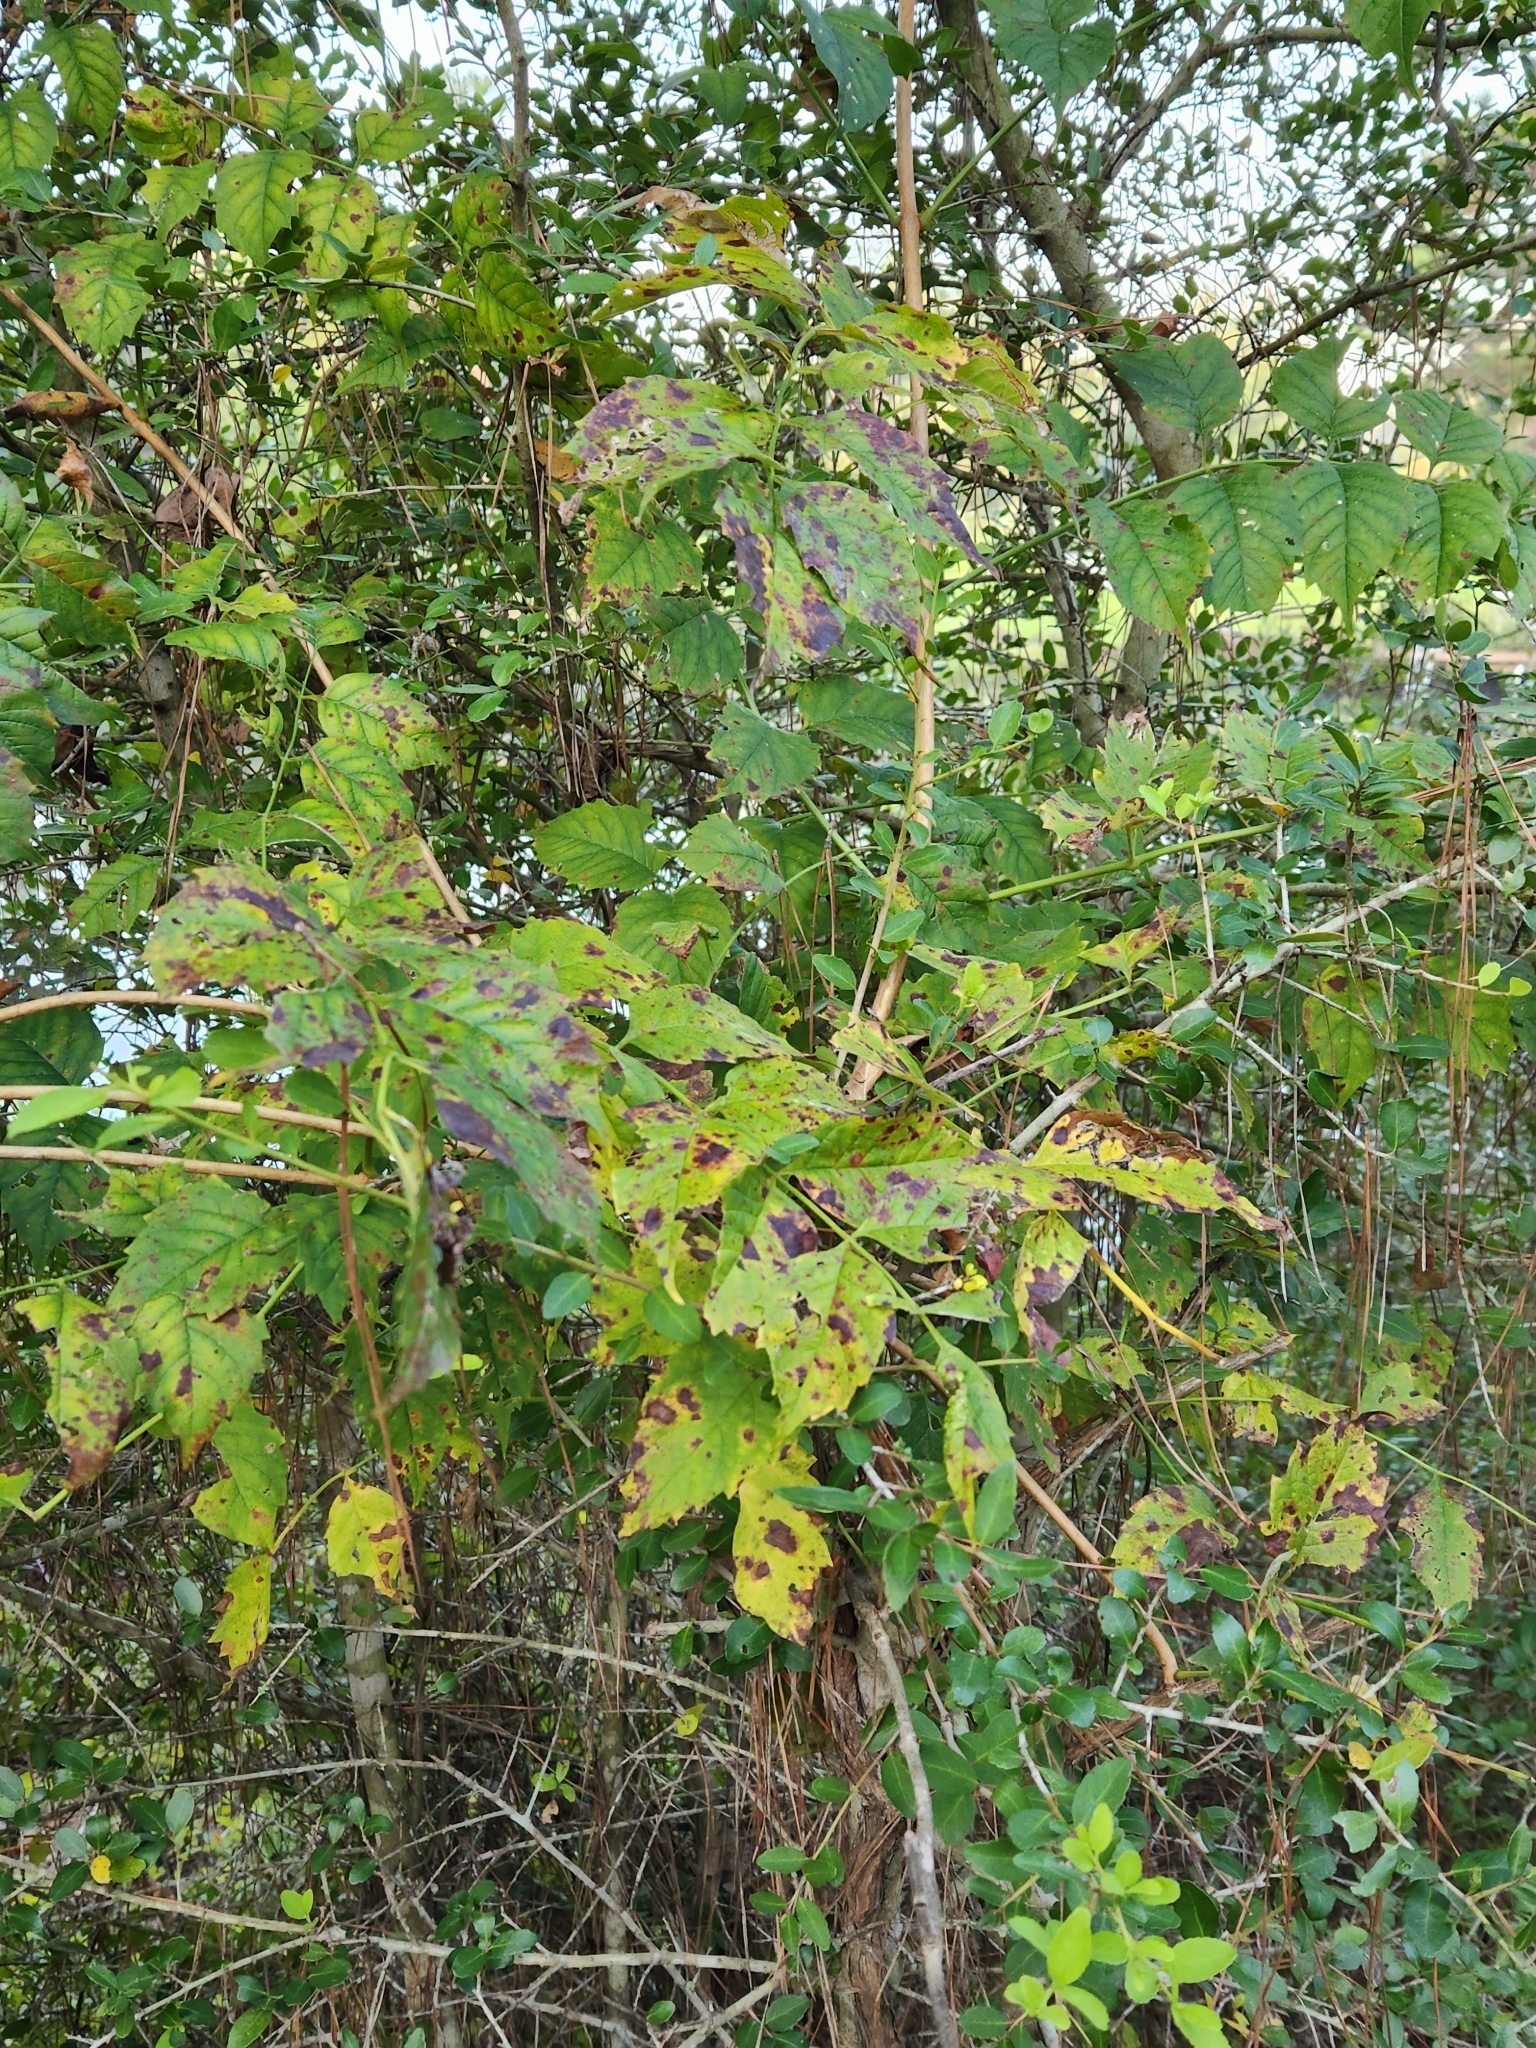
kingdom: Plantae
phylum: Tracheophyta
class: Magnoliopsida
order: Lamiales
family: Bignoniaceae
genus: Campsis
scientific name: Campsis radicans
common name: Trumpet-creeper
